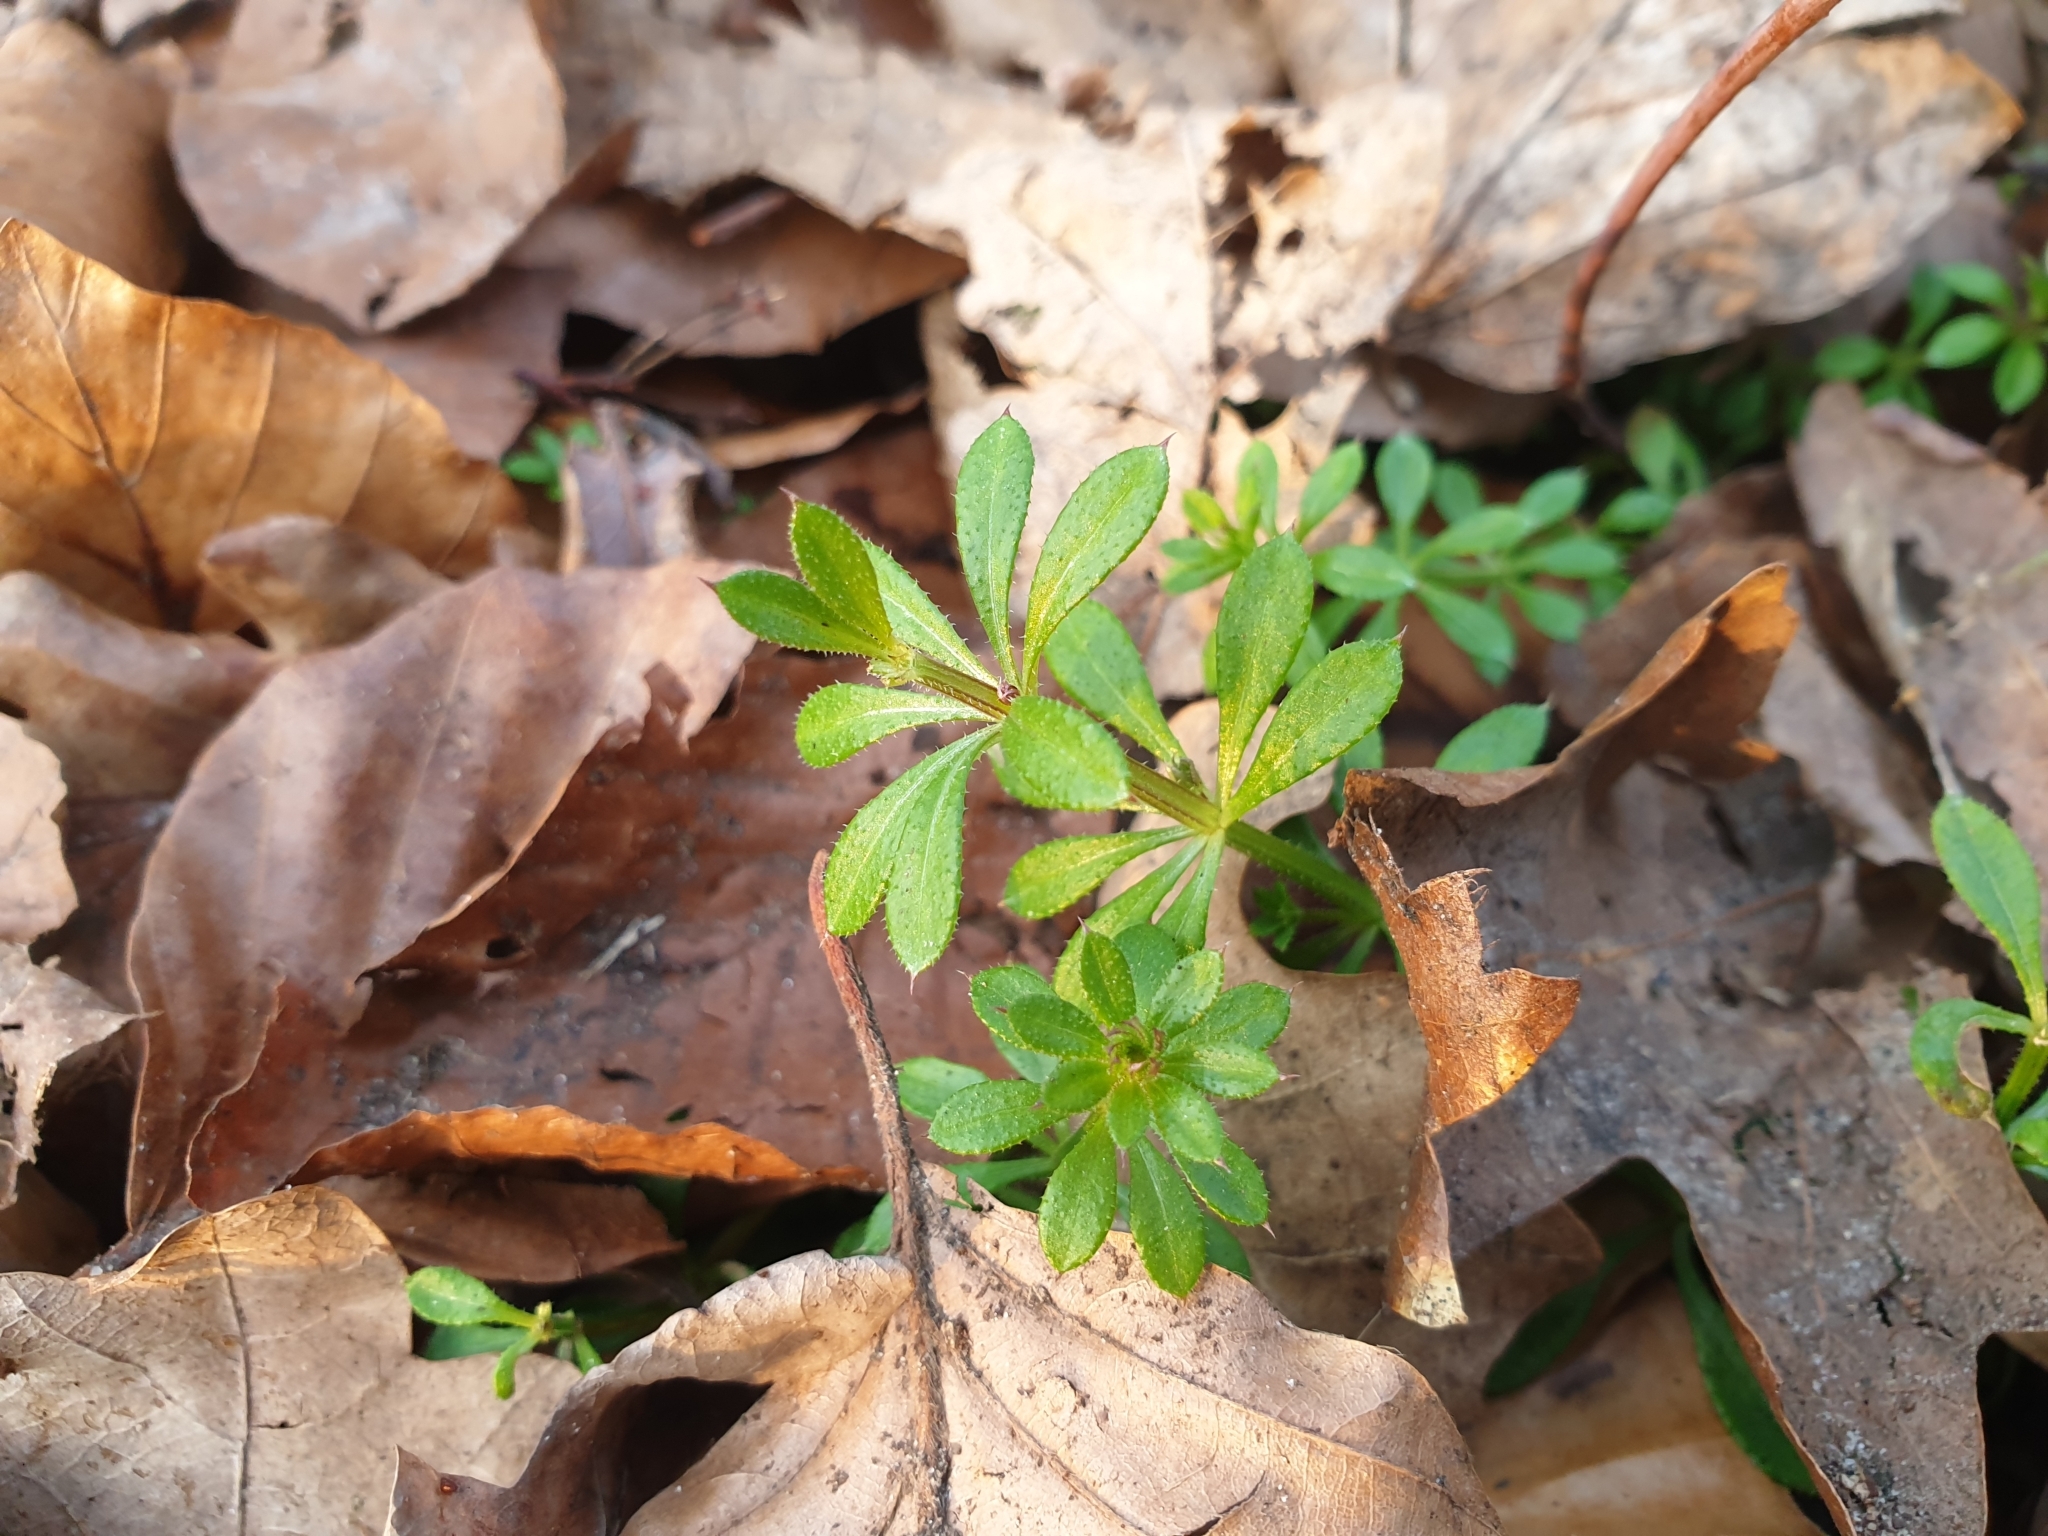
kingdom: Plantae
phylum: Tracheophyta
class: Magnoliopsida
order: Gentianales
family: Rubiaceae
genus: Galium
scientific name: Galium aparine
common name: Cleavers
